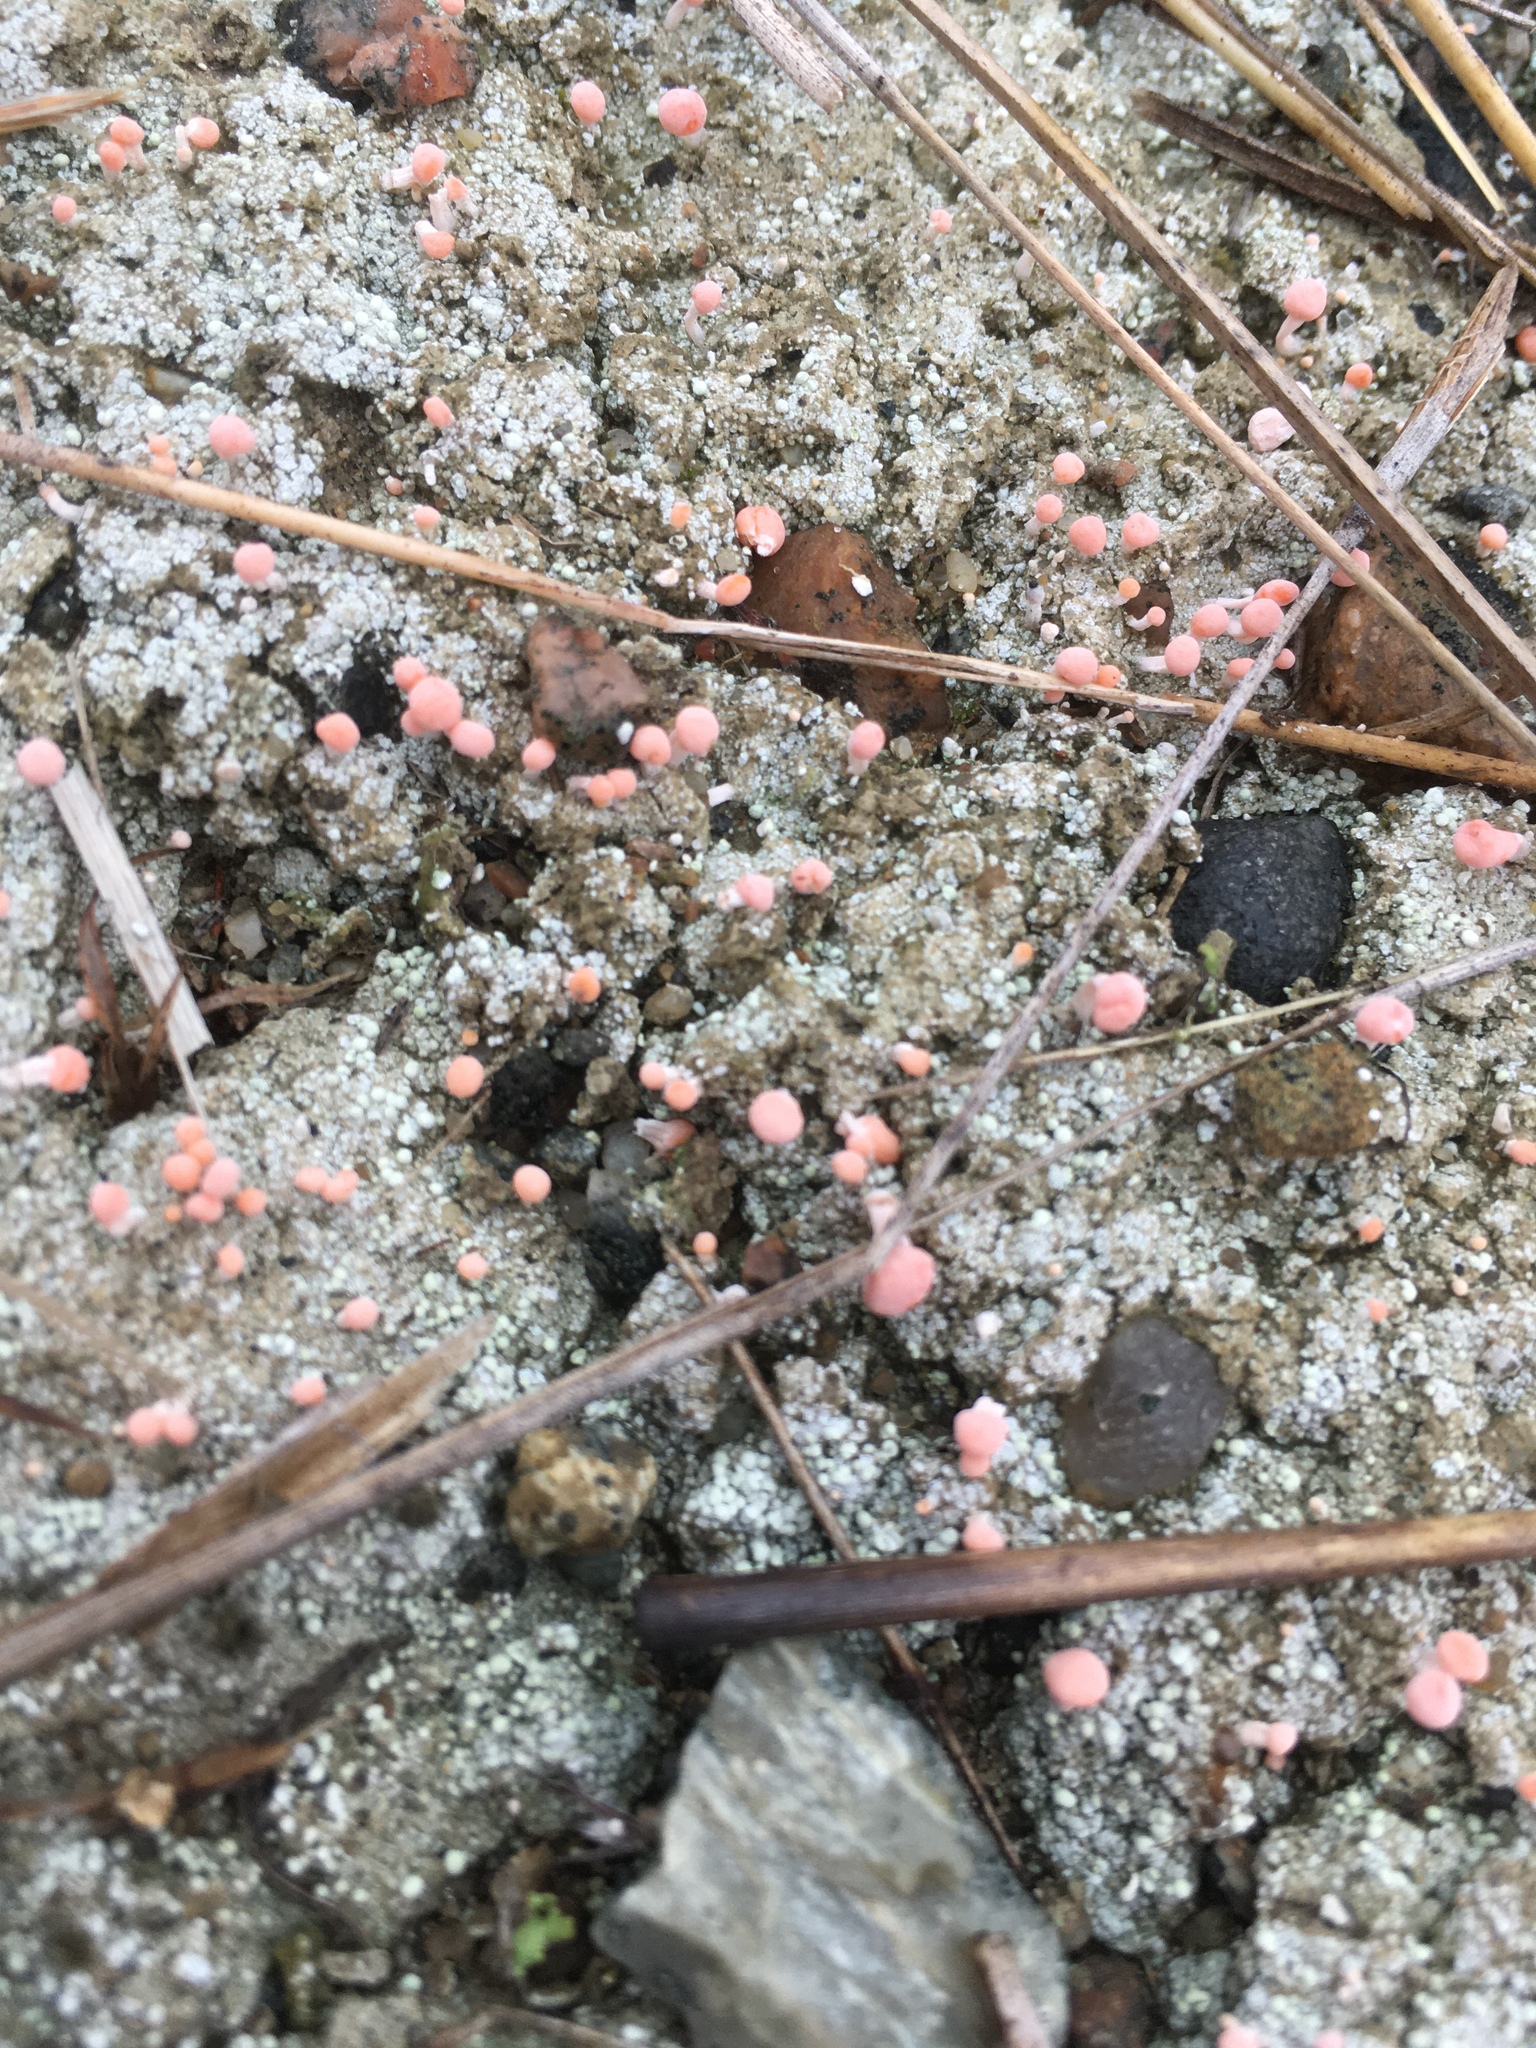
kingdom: Fungi
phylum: Ascomycota
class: Lecanoromycetes
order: Pertusariales
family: Icmadophilaceae
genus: Dibaeis
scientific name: Dibaeis baeomyces
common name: Pink earth lichen
